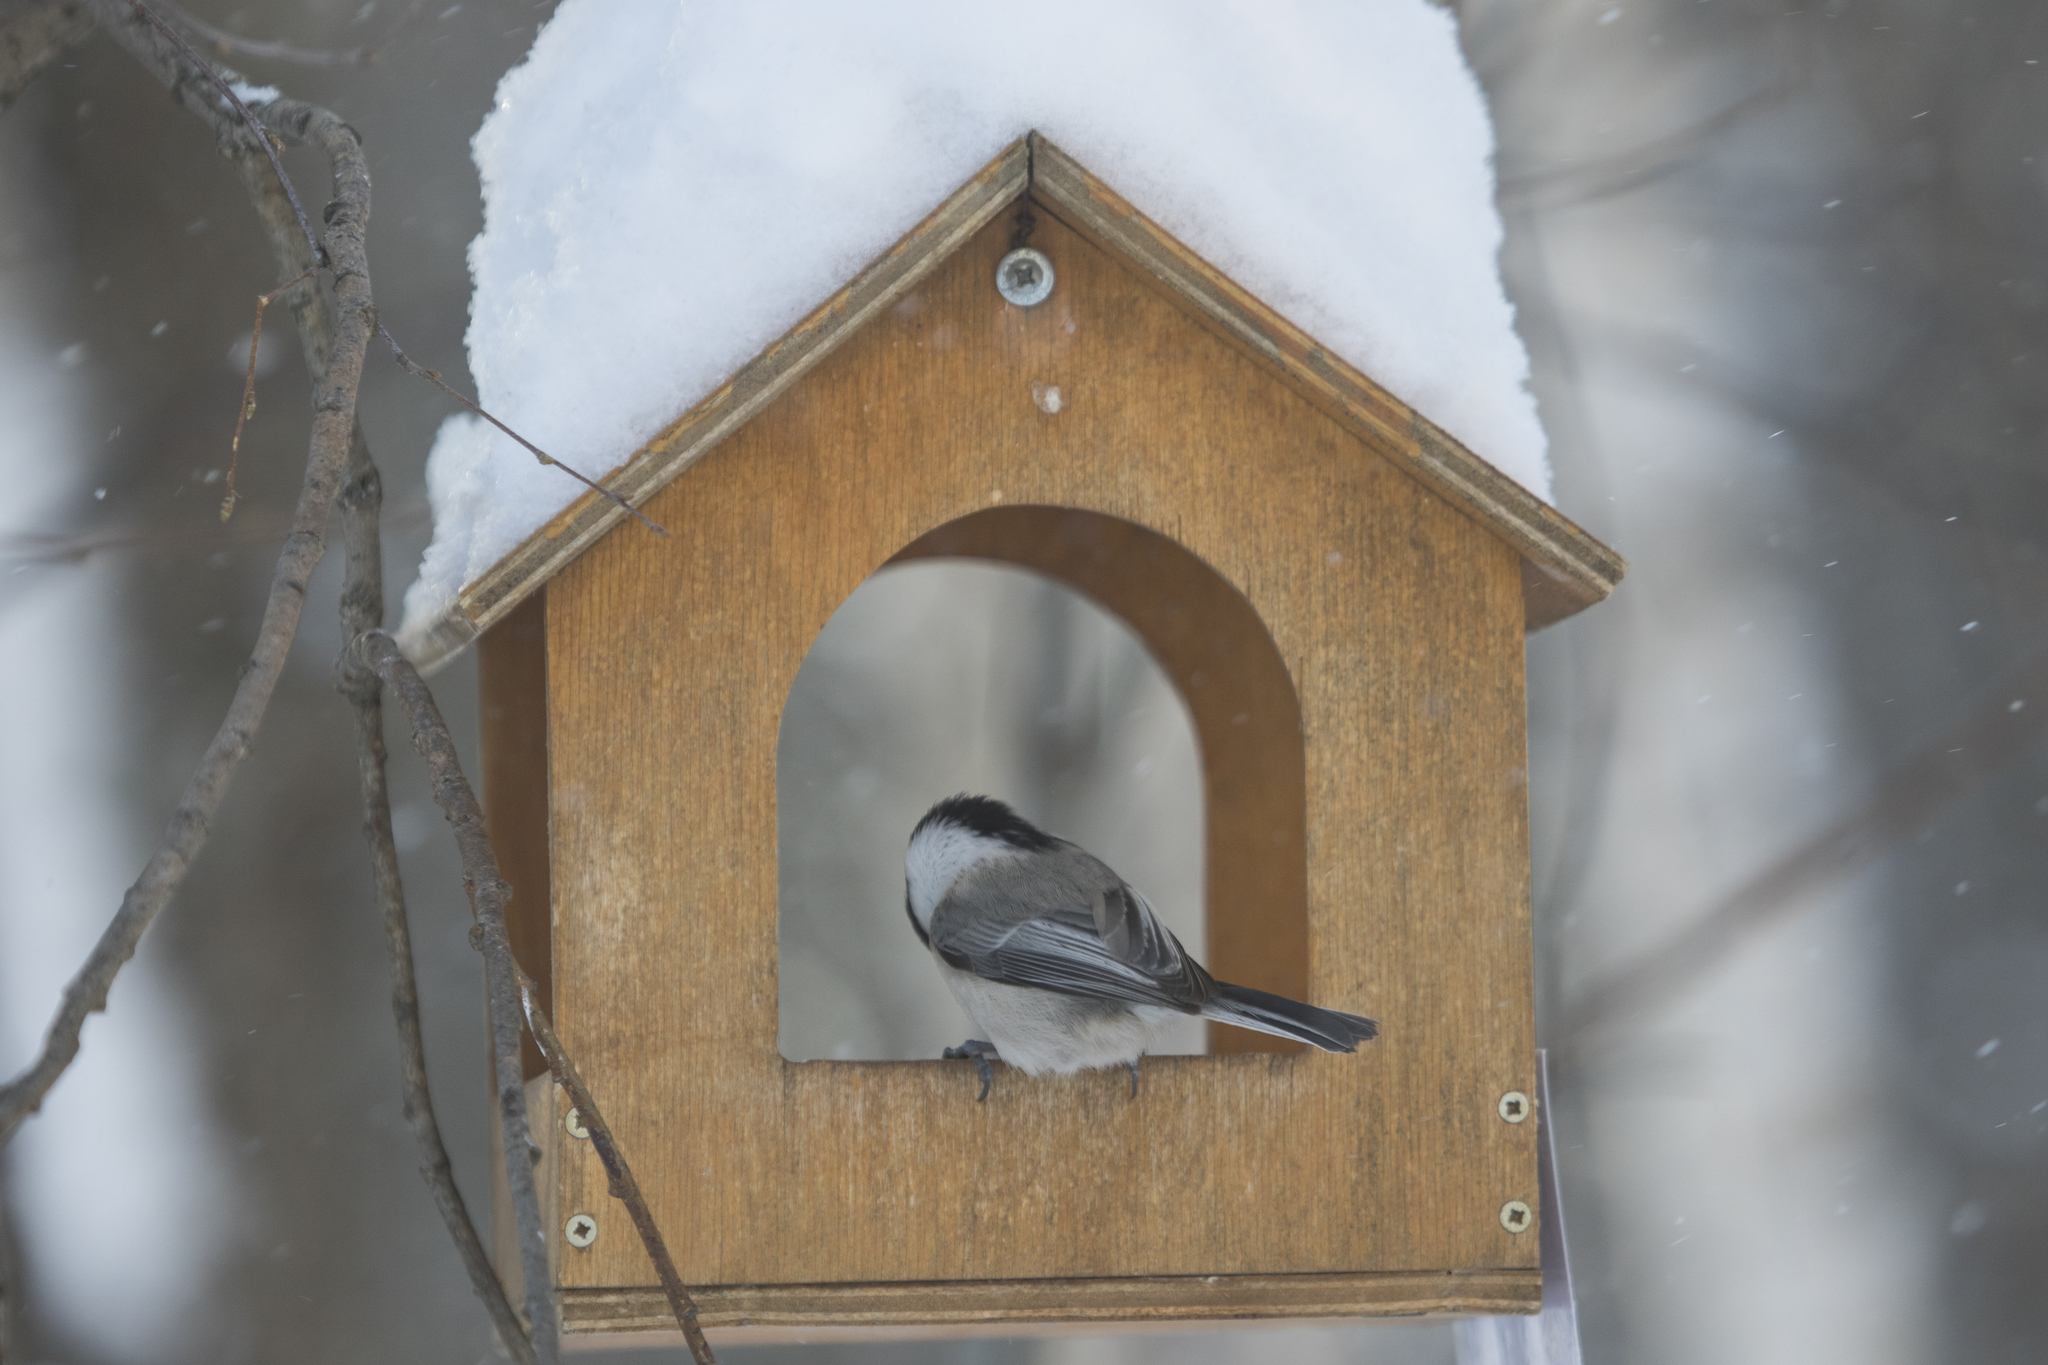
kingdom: Animalia
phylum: Chordata
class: Aves
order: Passeriformes
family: Paridae
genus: Poecile
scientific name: Poecile montanus
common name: Willow tit
